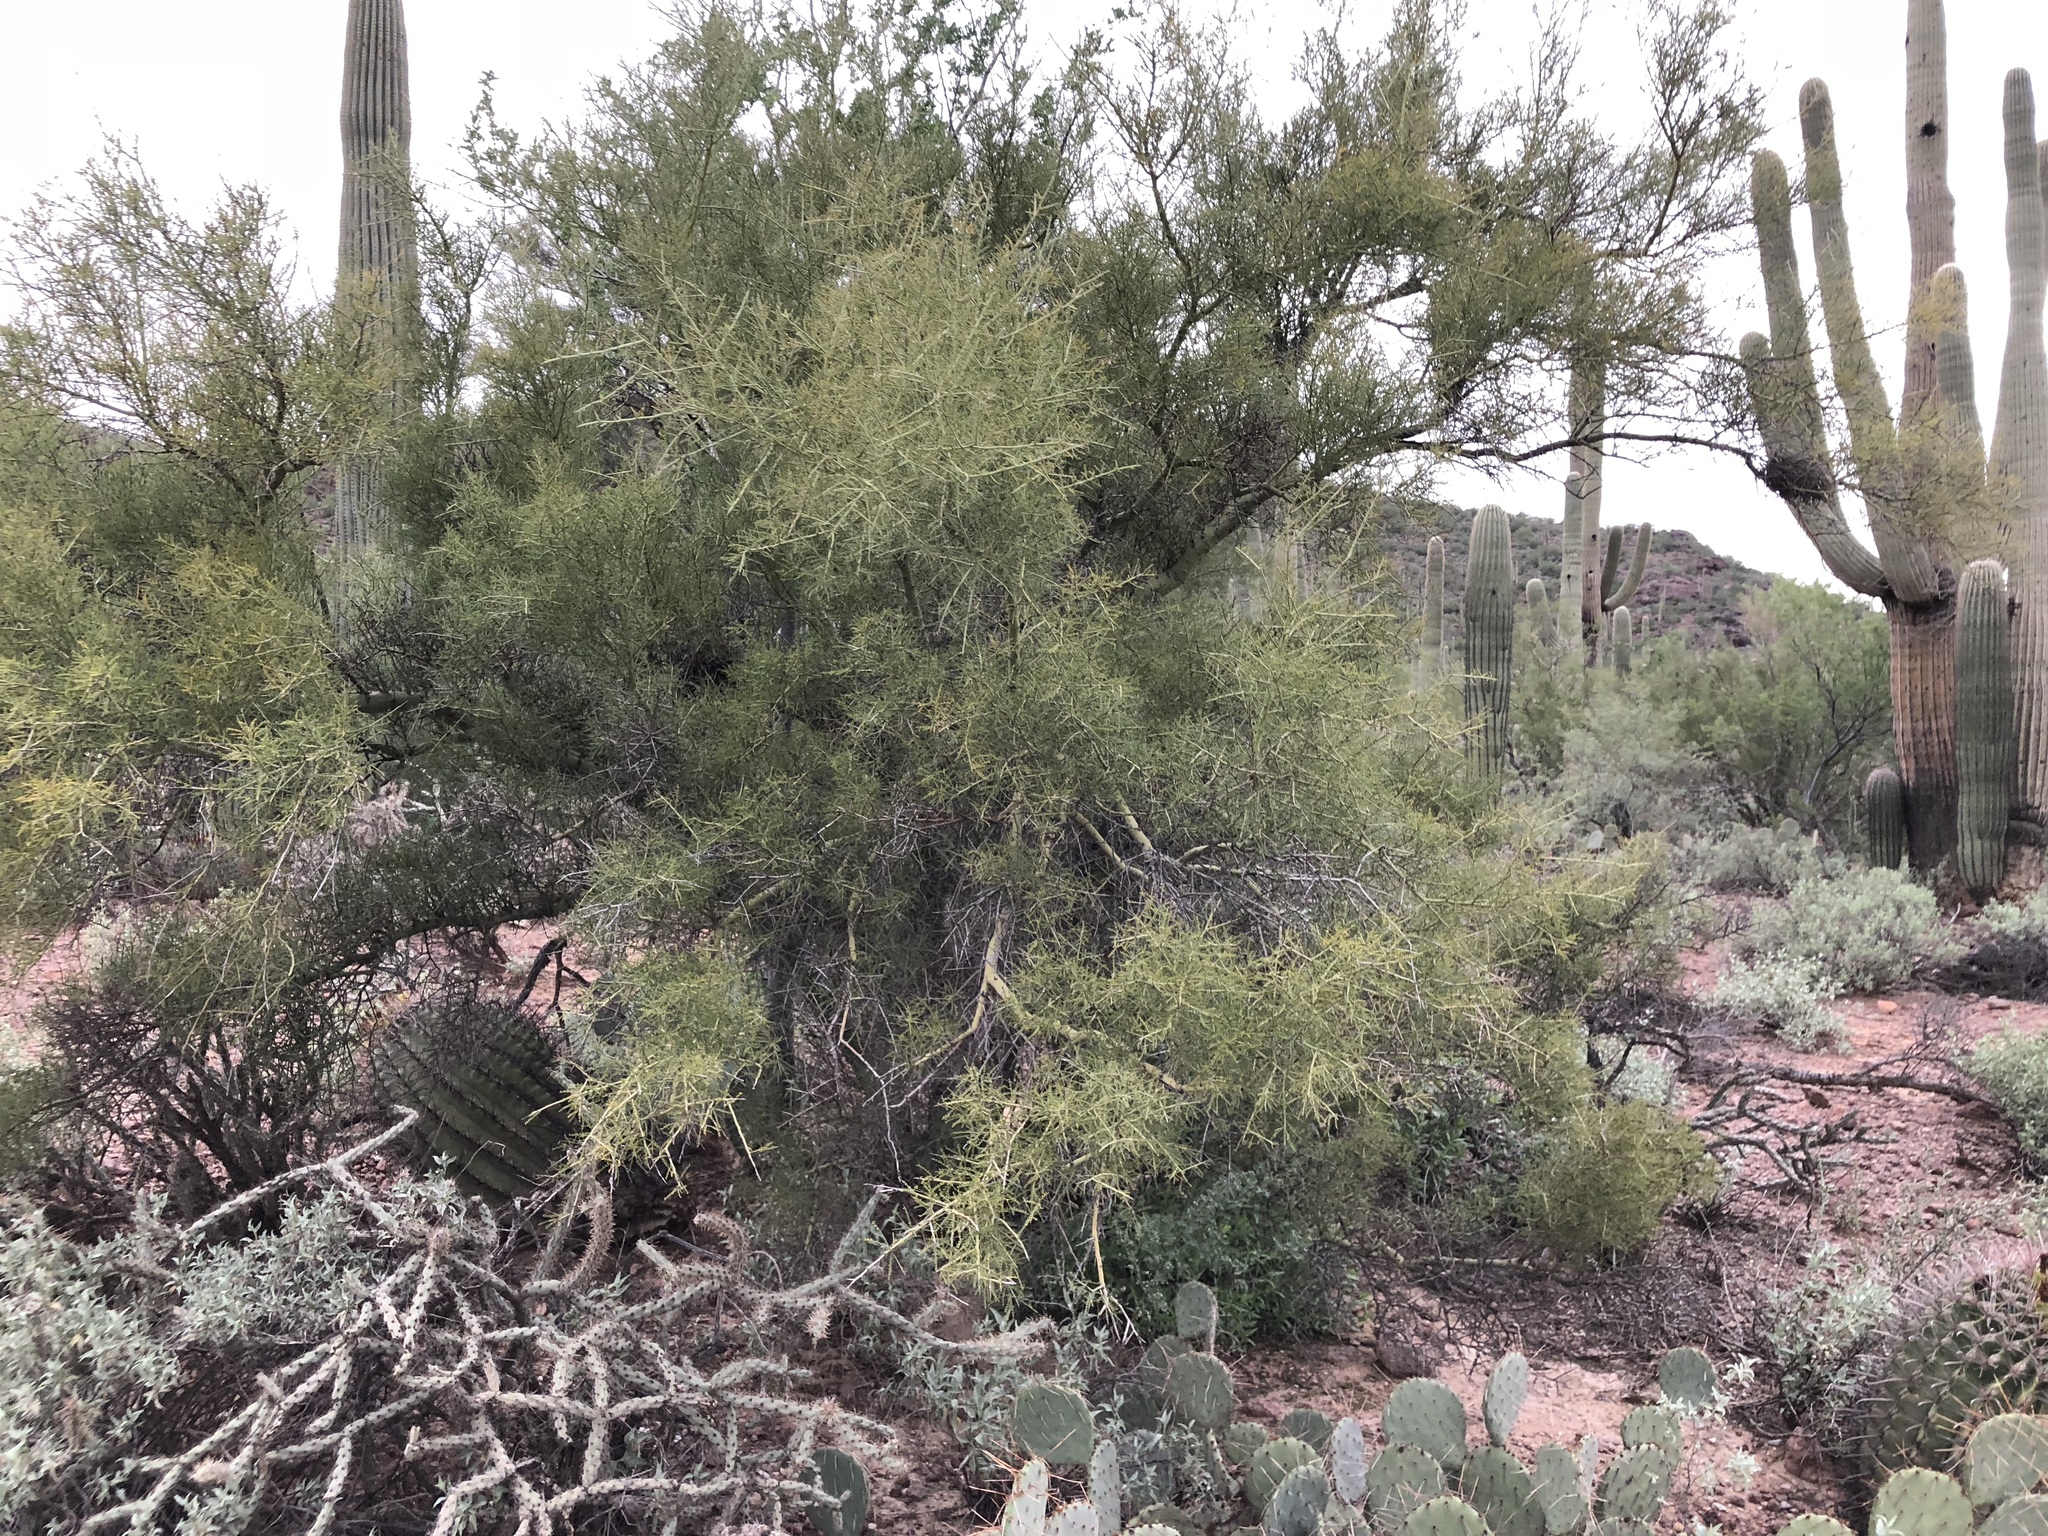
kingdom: Plantae
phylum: Tracheophyta
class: Magnoliopsida
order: Fabales
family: Fabaceae
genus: Parkinsonia
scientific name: Parkinsonia microphylla
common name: Yellow paloverde
